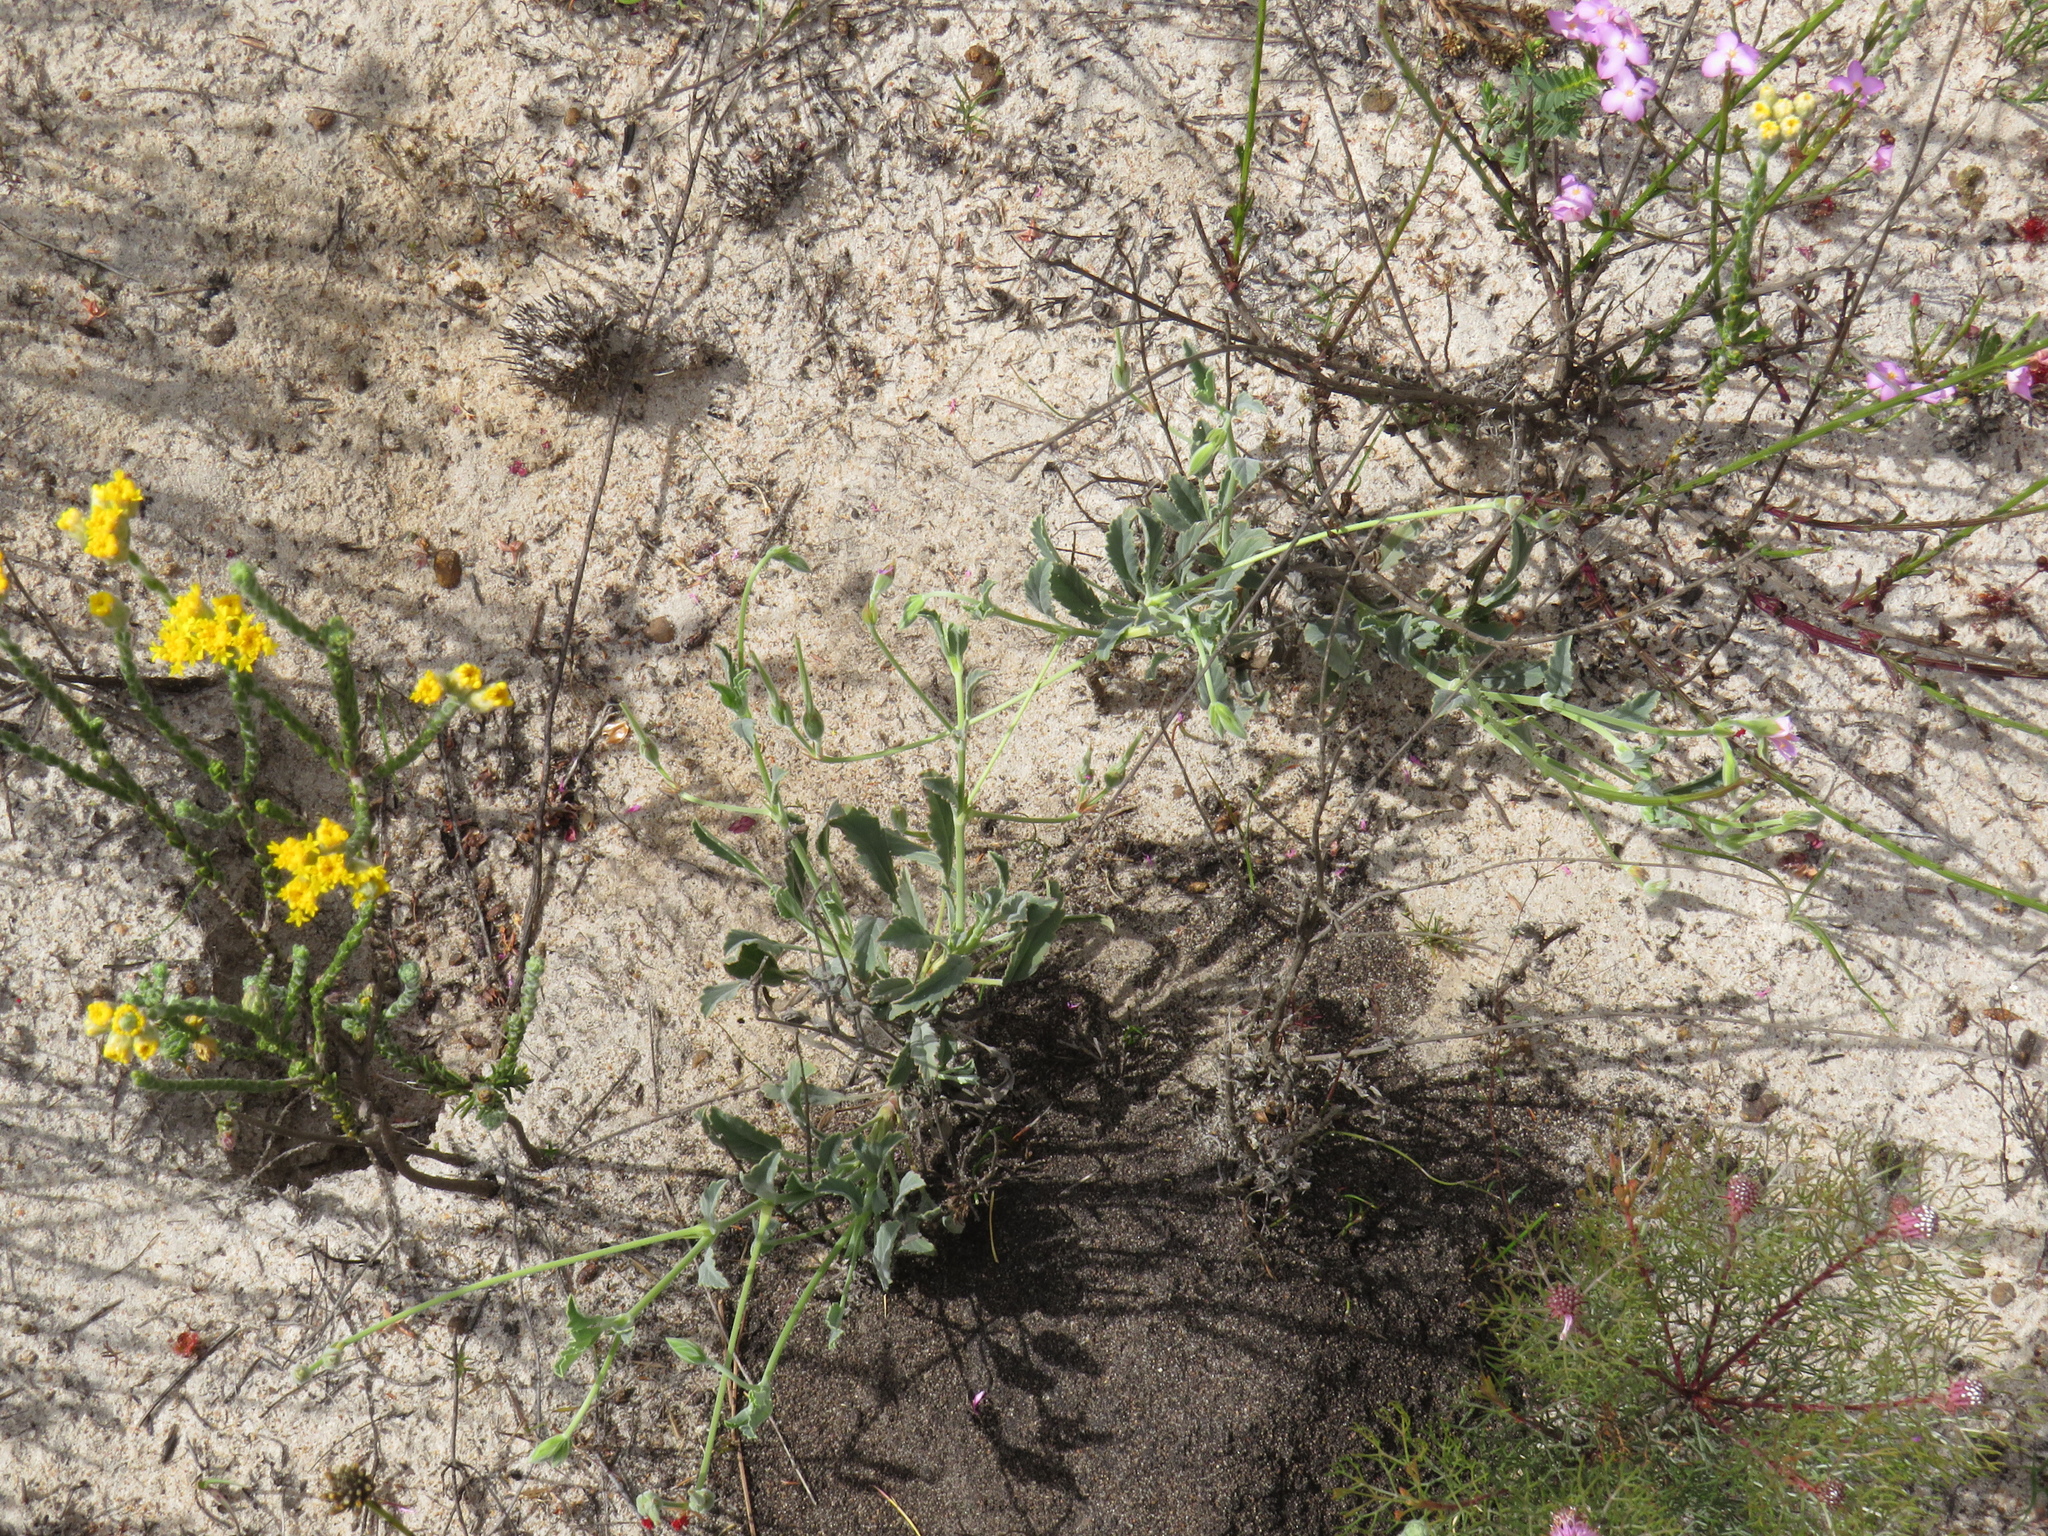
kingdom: Plantae
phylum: Tracheophyta
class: Magnoliopsida
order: Geraniales
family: Geraniaceae
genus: Pelargonium
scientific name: Pelargonium oenothera
